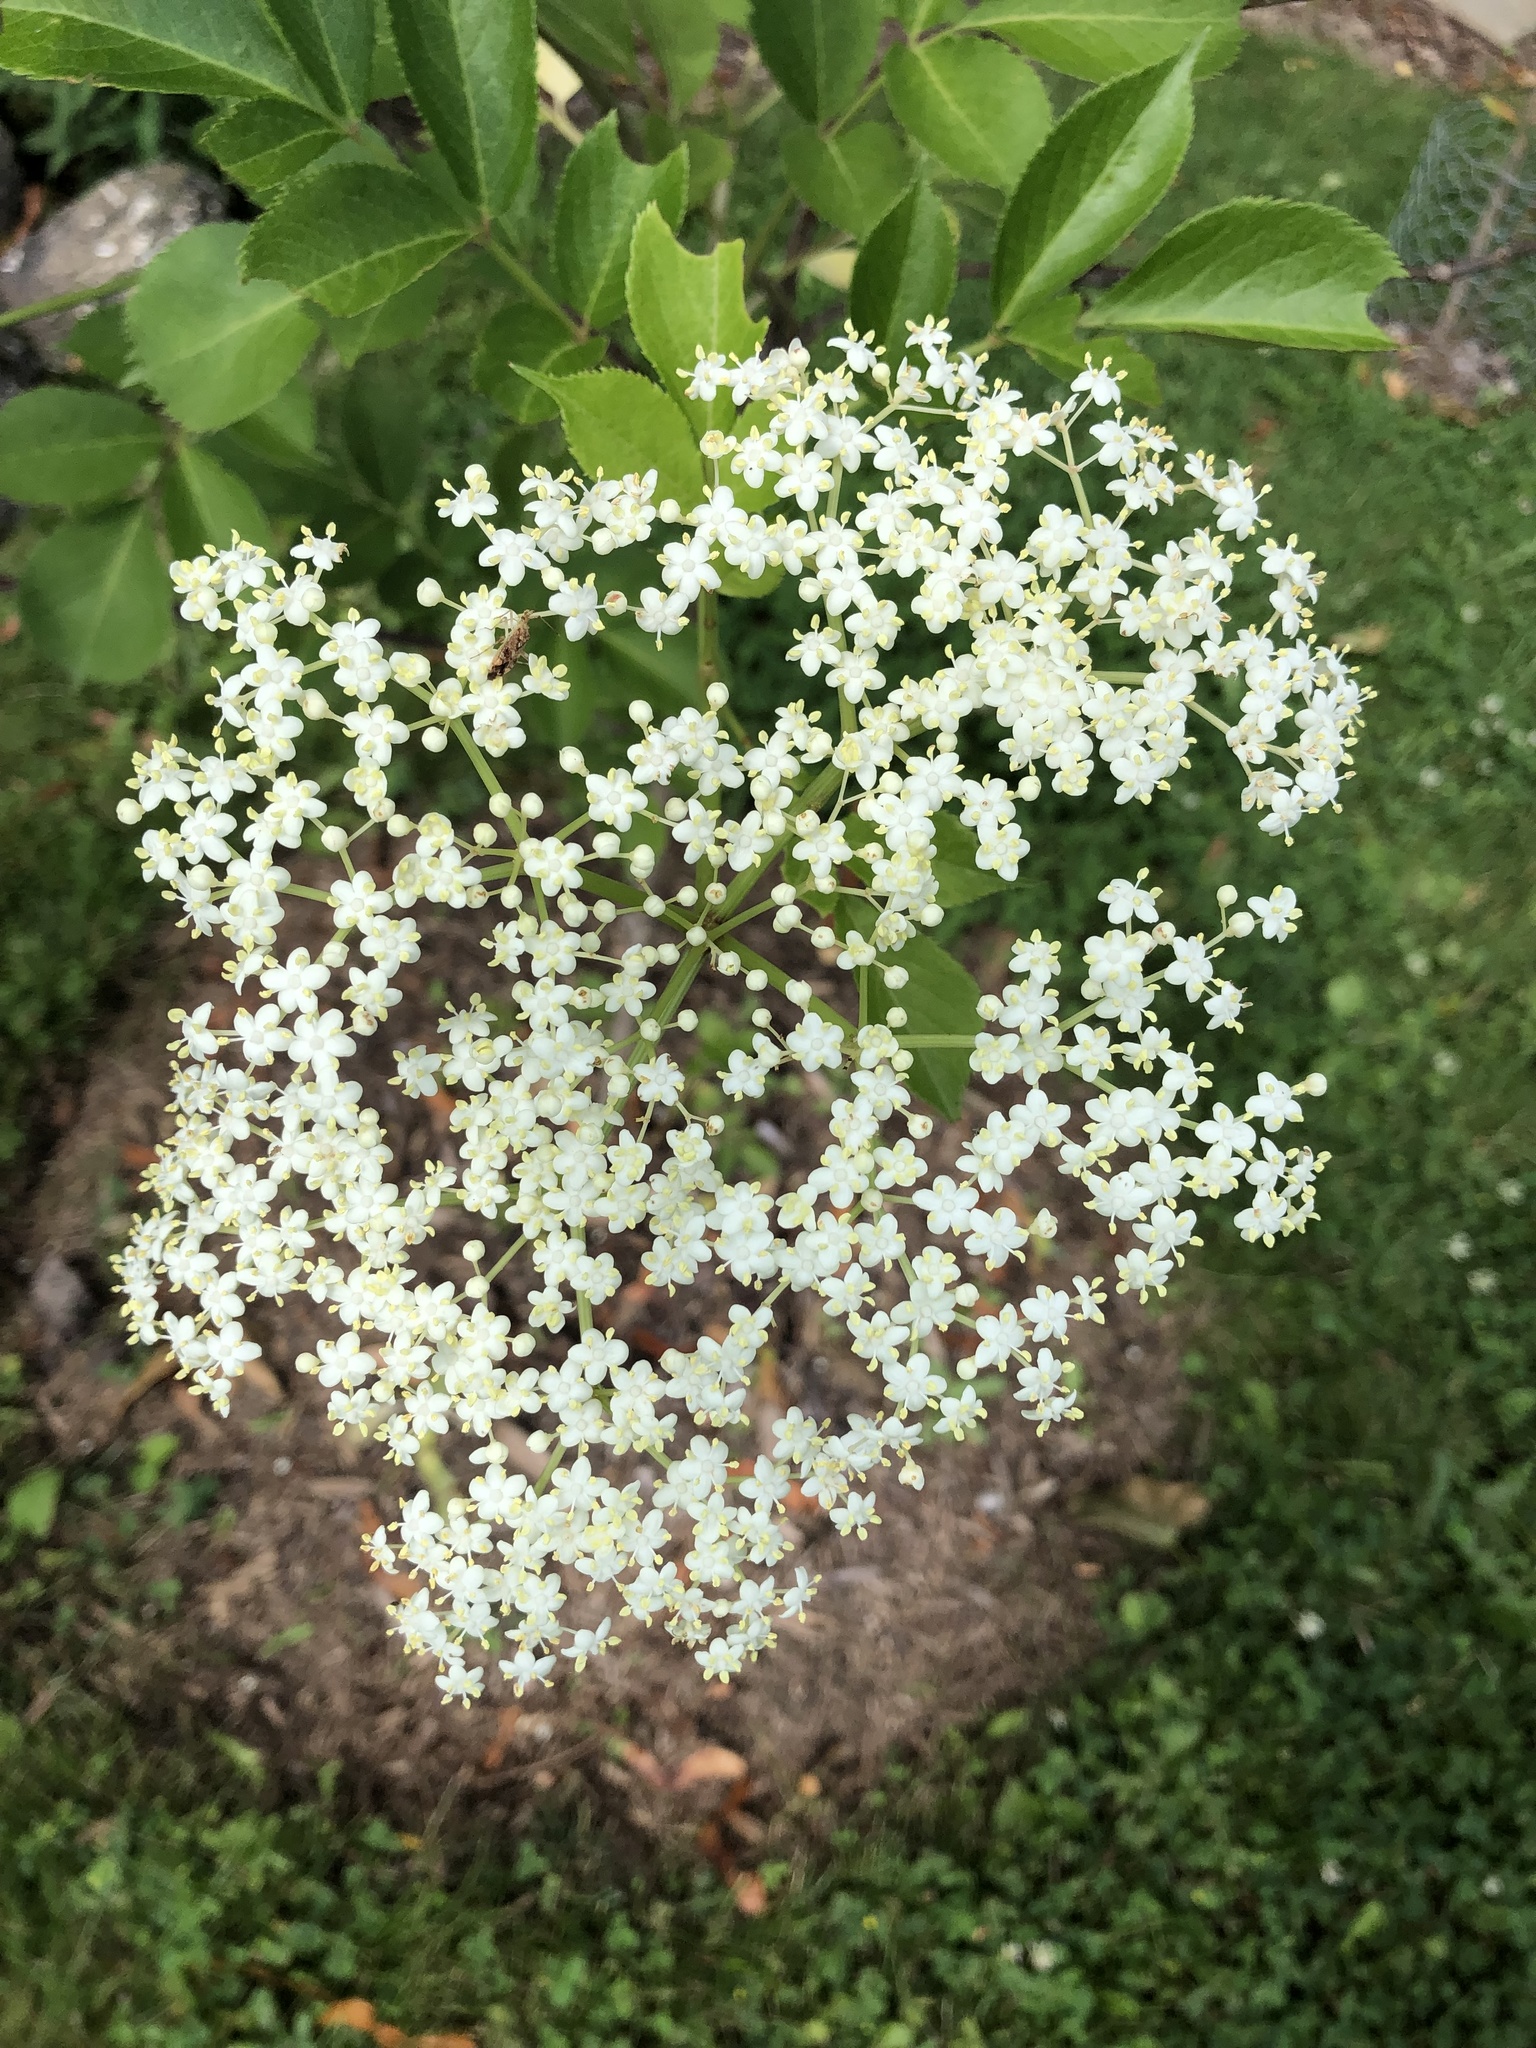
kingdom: Plantae
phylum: Tracheophyta
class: Magnoliopsida
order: Dipsacales
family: Viburnaceae
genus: Sambucus
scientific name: Sambucus canadensis
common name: American elder
